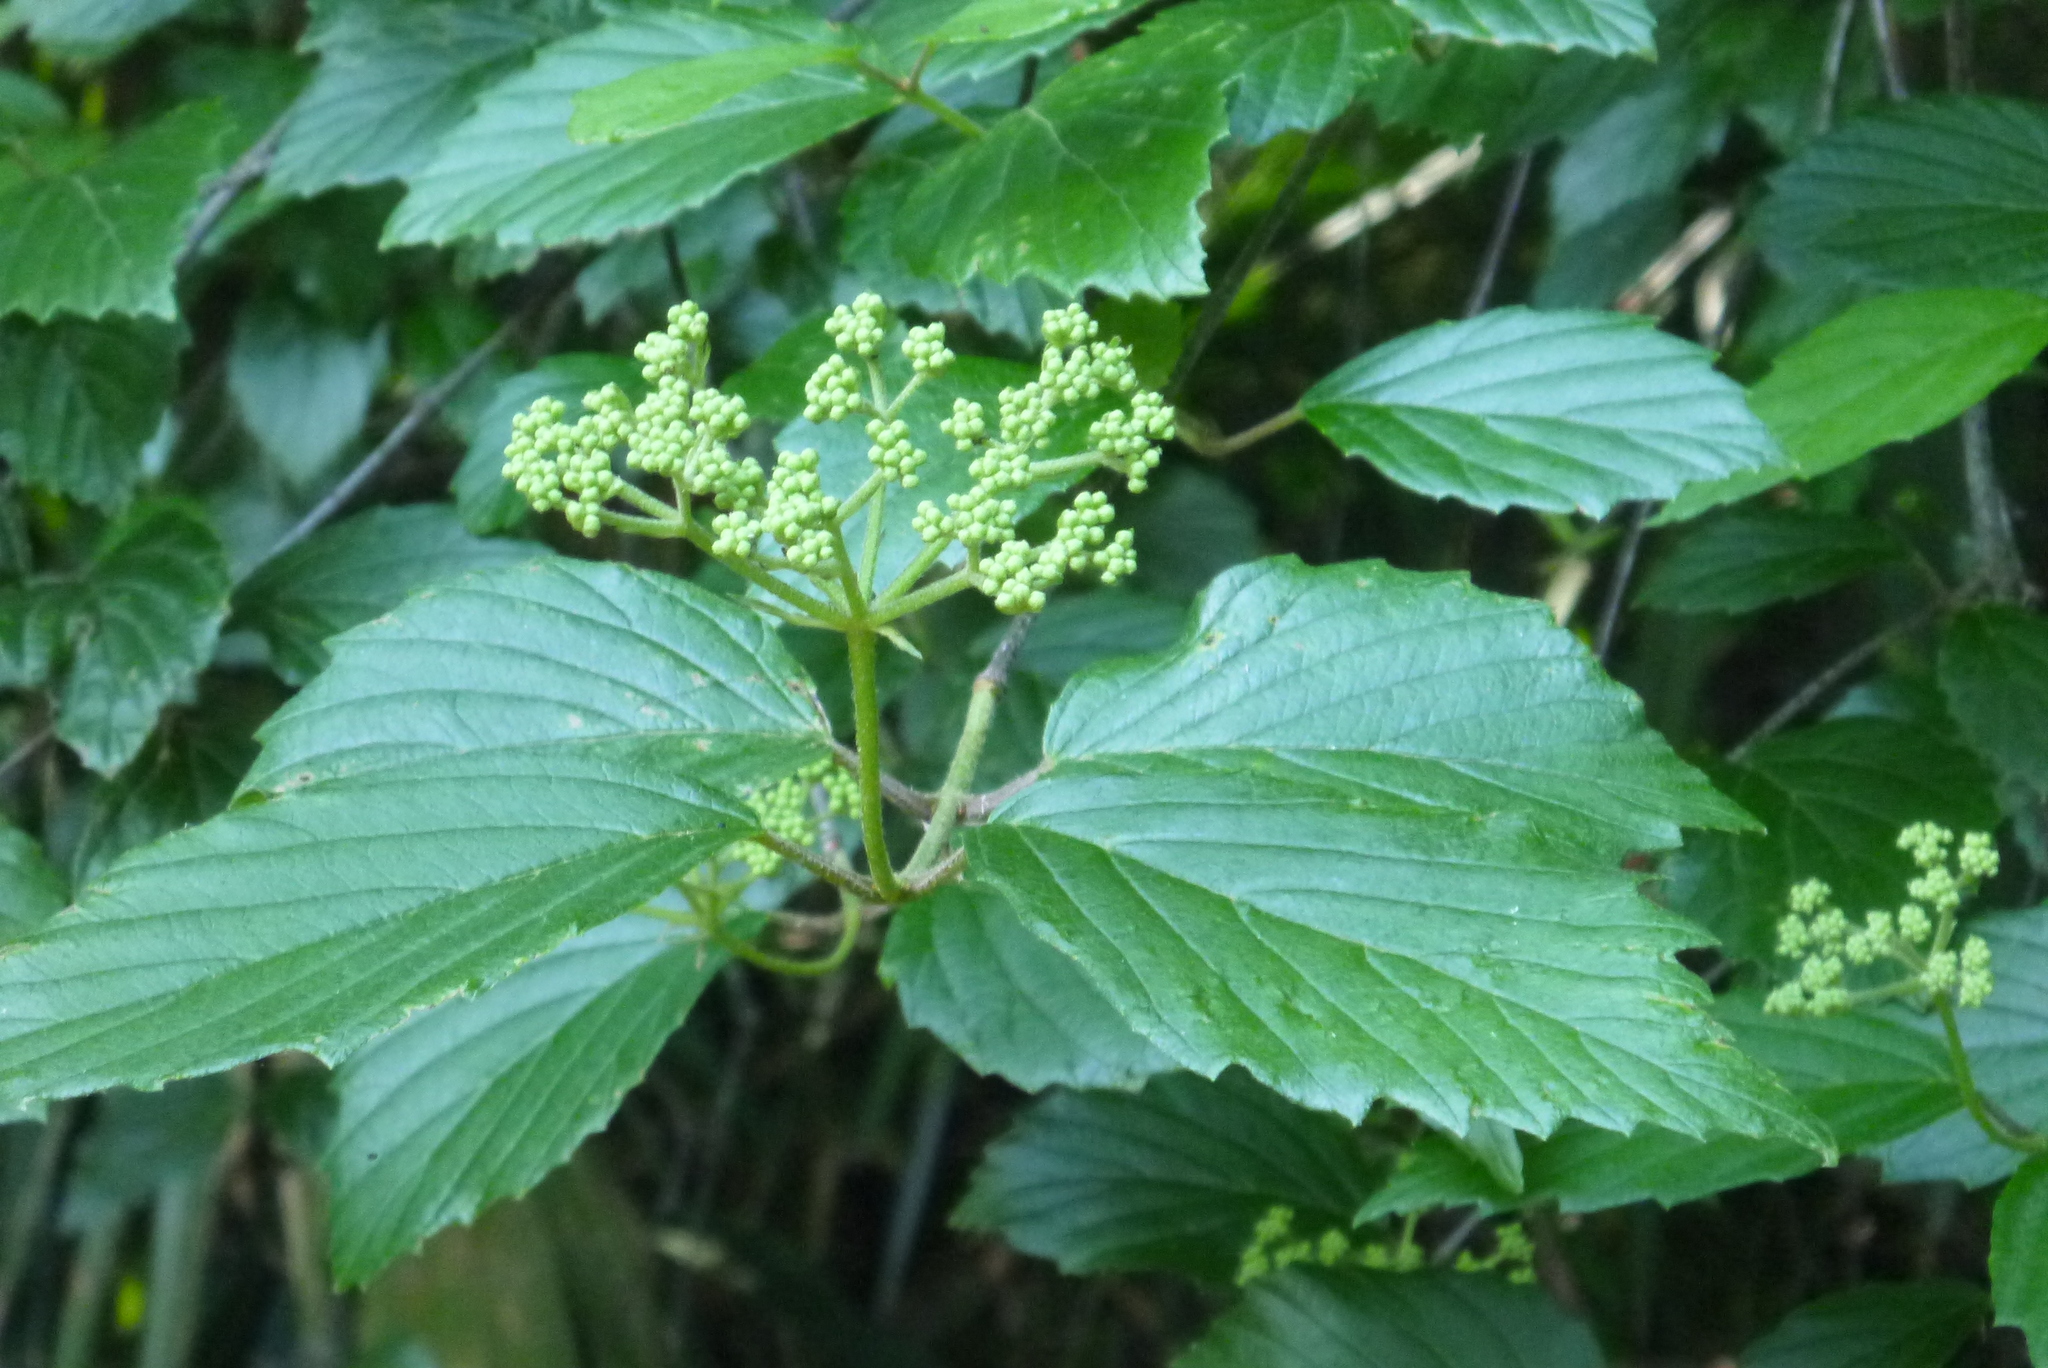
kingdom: Plantae
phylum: Tracheophyta
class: Magnoliopsida
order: Dipsacales
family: Viburnaceae
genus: Viburnum
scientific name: Viburnum scabrellum
